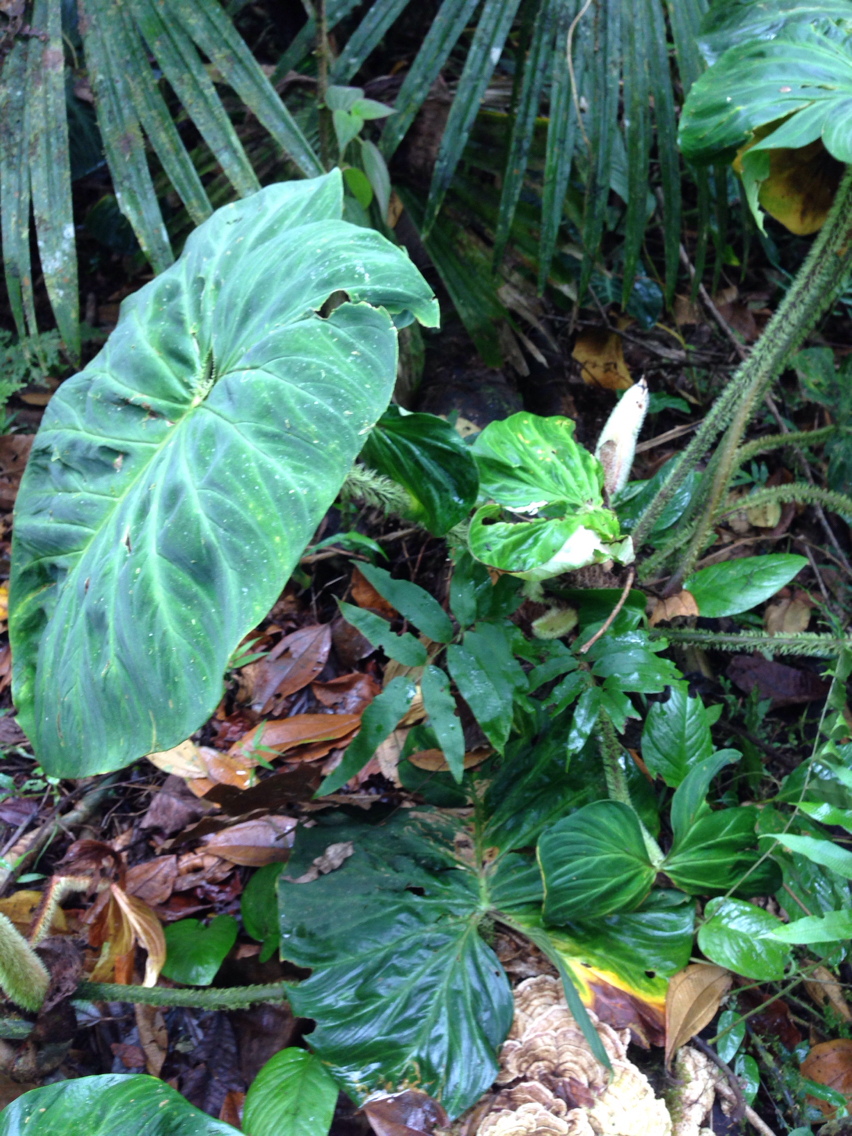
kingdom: Plantae
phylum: Tracheophyta
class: Liliopsida
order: Alismatales
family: Araceae
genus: Philodendron
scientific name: Philodendron verrucosum
